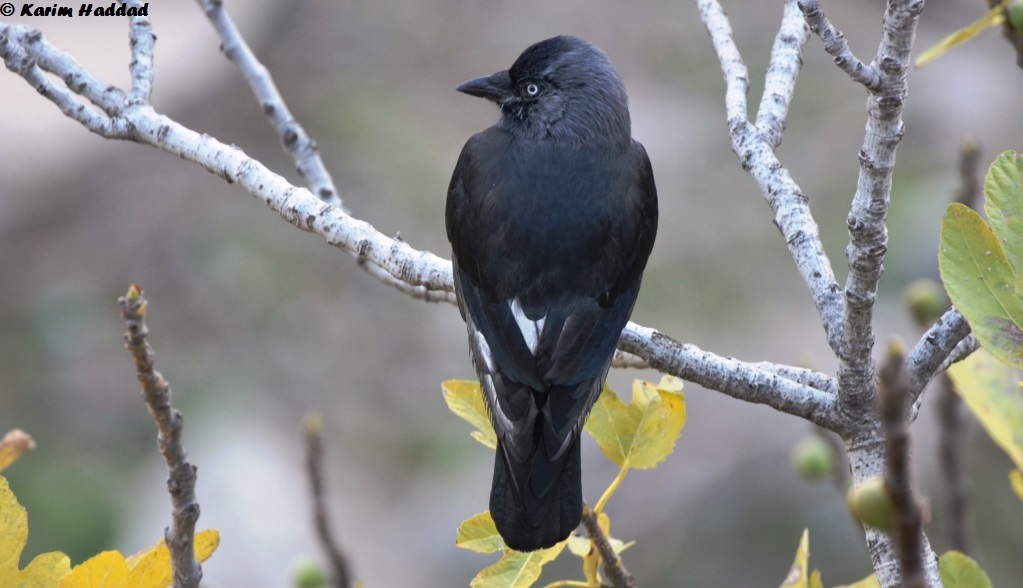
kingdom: Animalia
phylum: Chordata
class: Aves
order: Passeriformes
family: Corvidae
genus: Coloeus
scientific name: Coloeus monedula
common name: Western jackdaw
